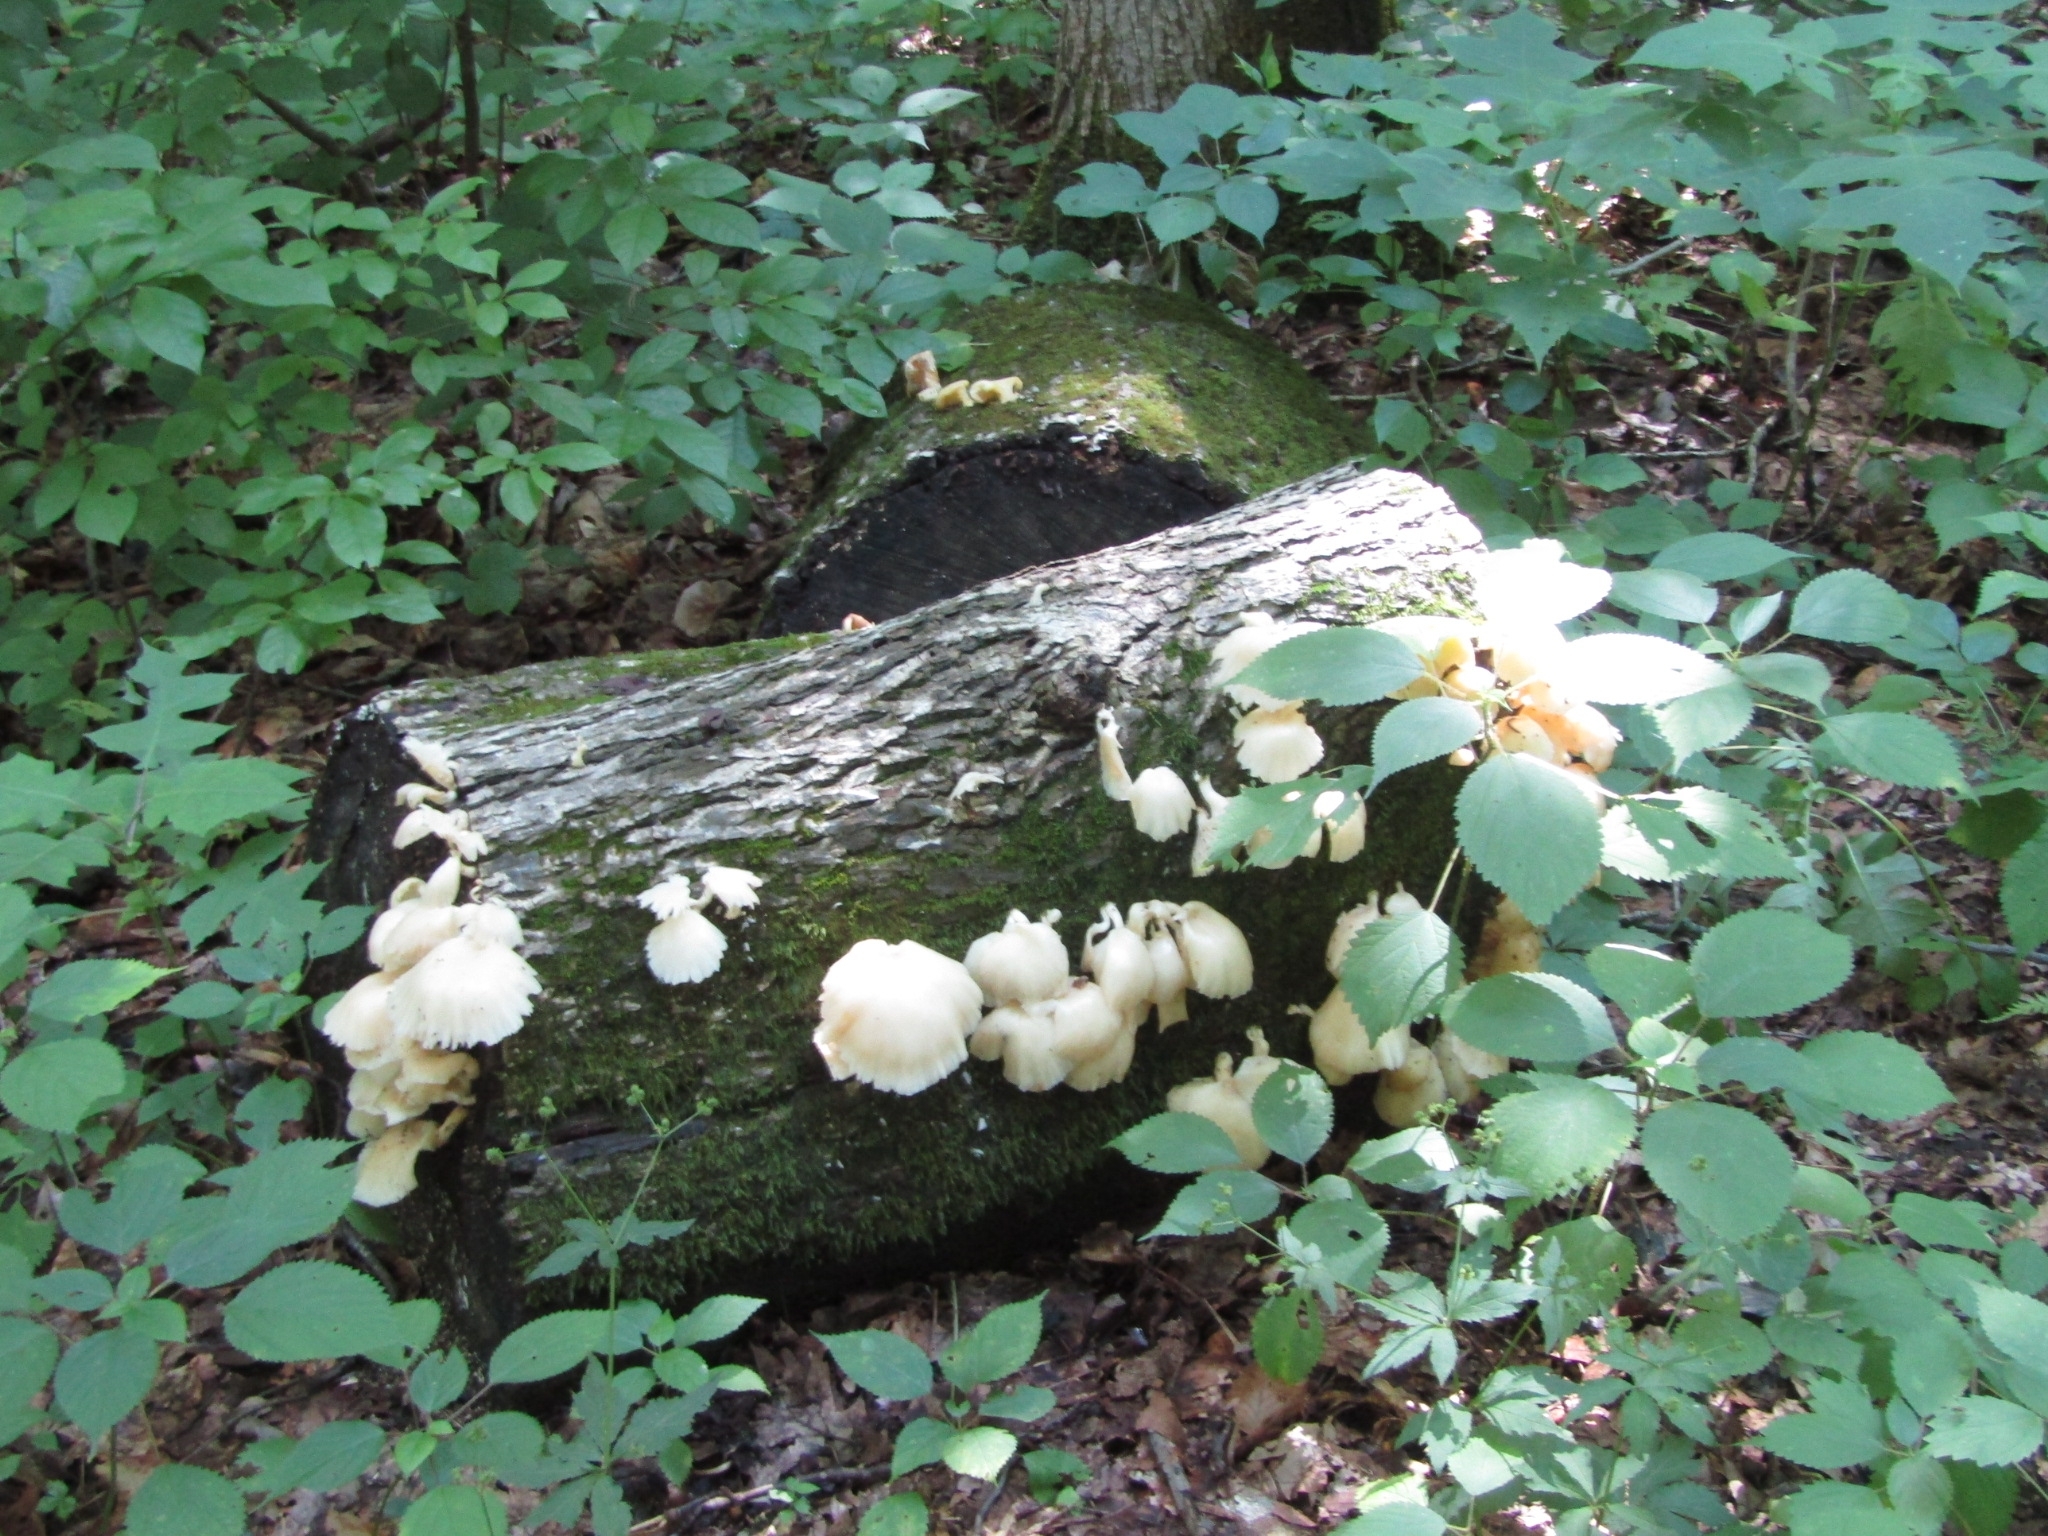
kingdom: Fungi
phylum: Basidiomycota
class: Agaricomycetes
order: Agaricales
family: Pleurotaceae
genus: Pleurotus
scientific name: Pleurotus pulmonarius
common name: Pale oyster
